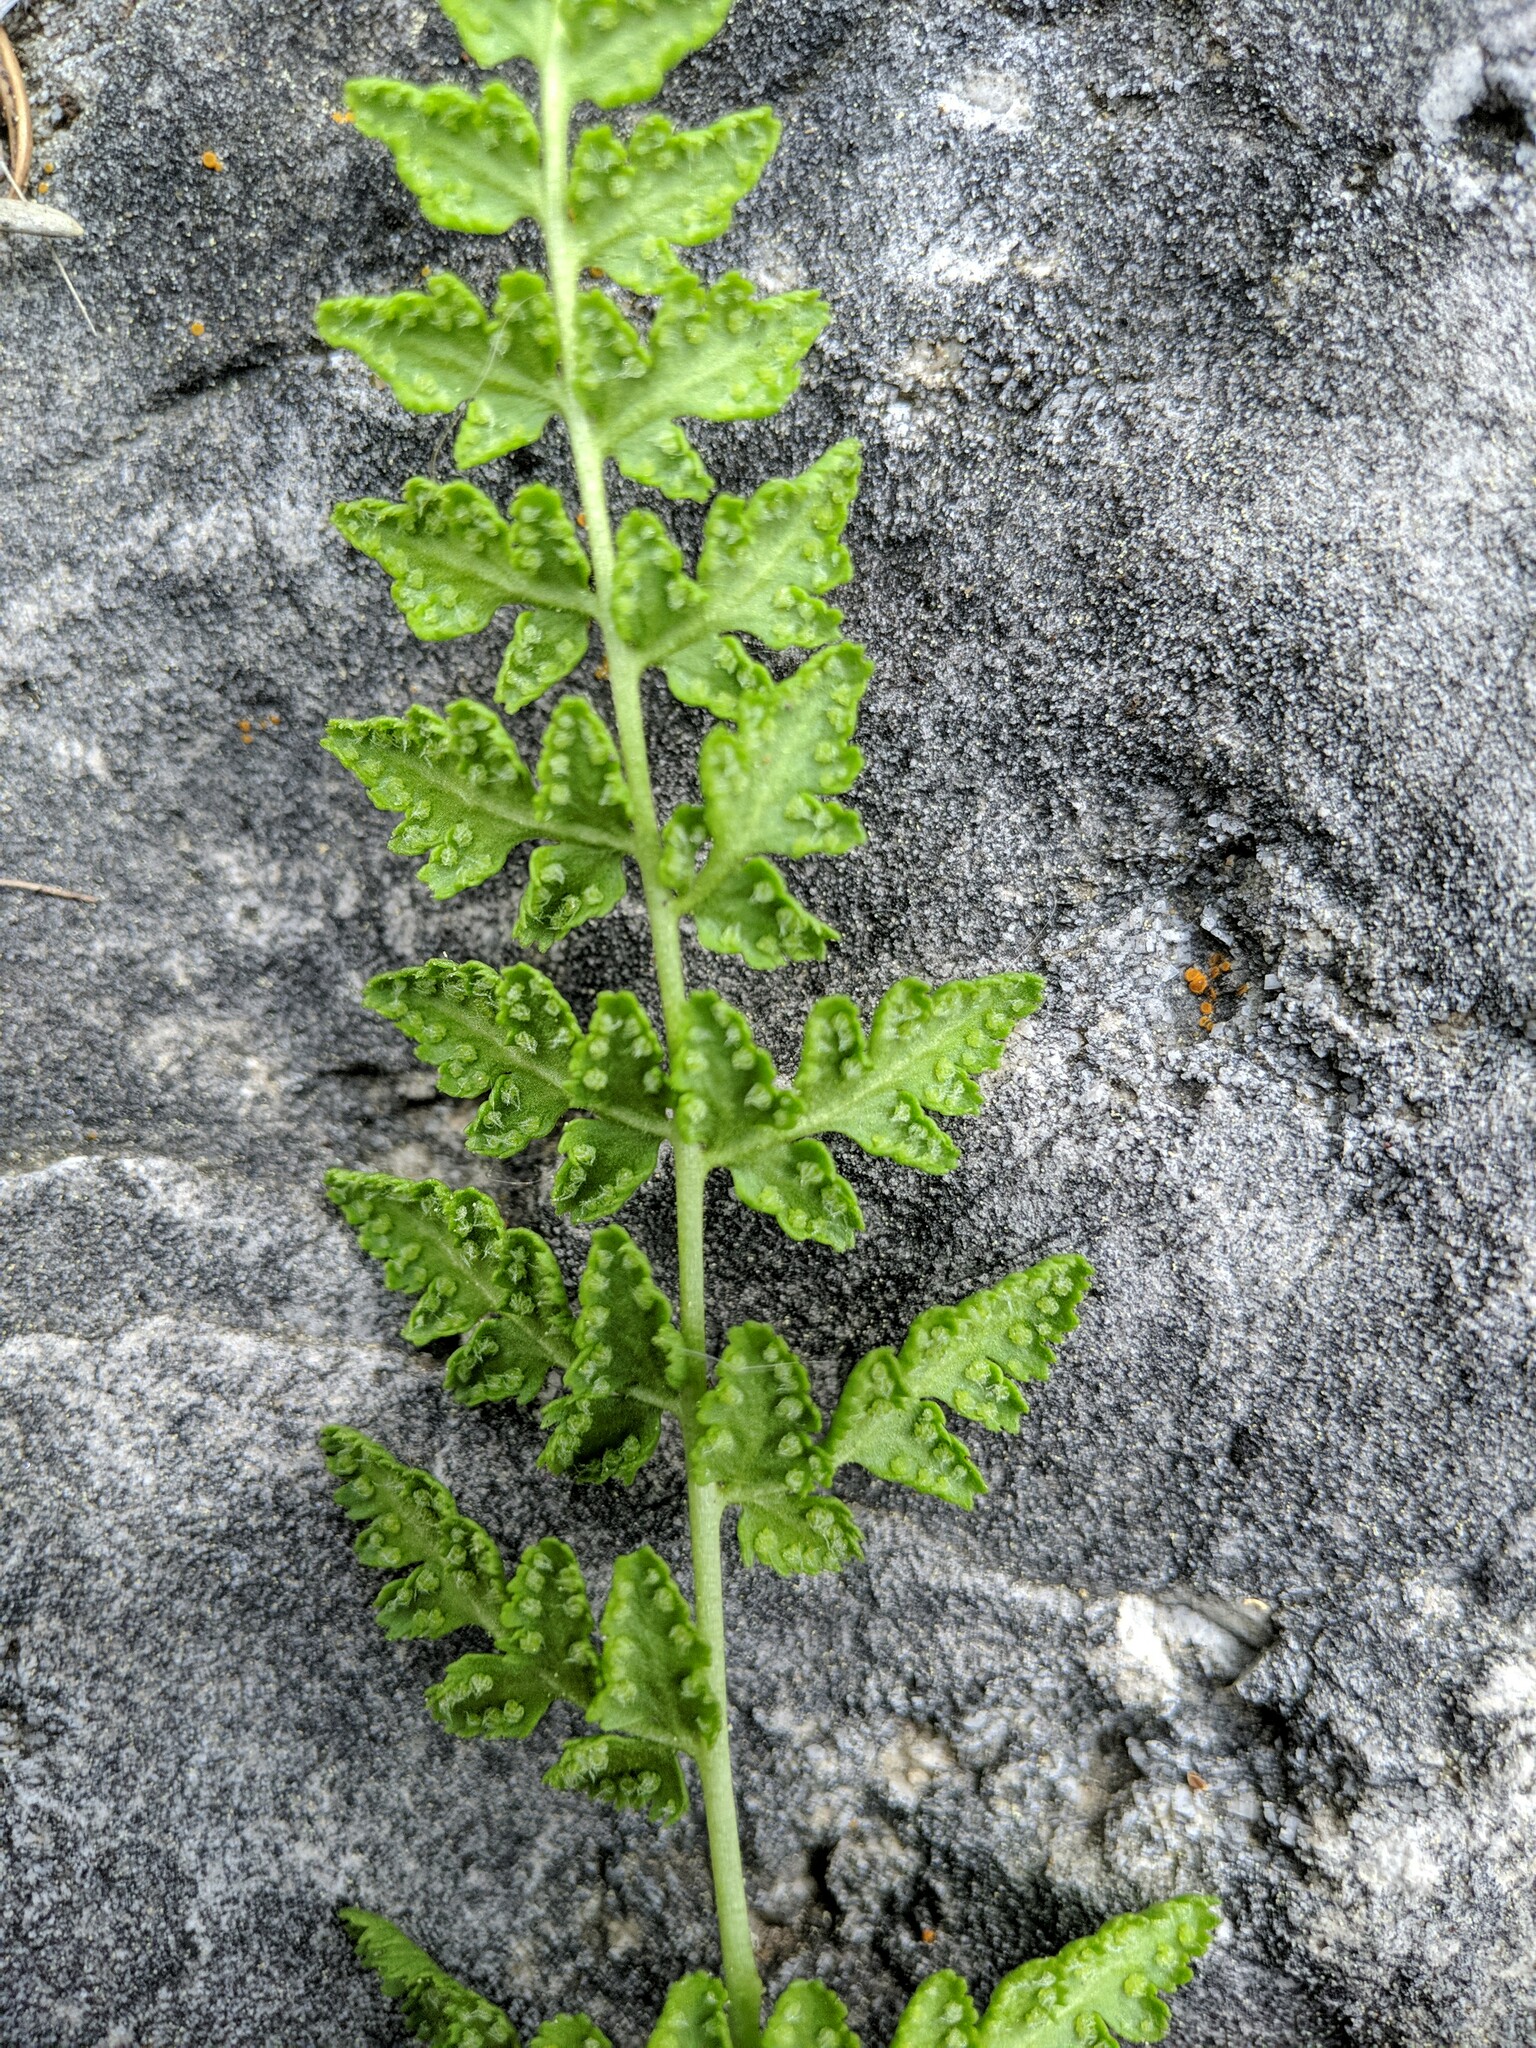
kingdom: Plantae
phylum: Tracheophyta
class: Polypodiopsida
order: Polypodiales
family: Woodsiaceae
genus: Physematium
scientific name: Physematium oreganum
